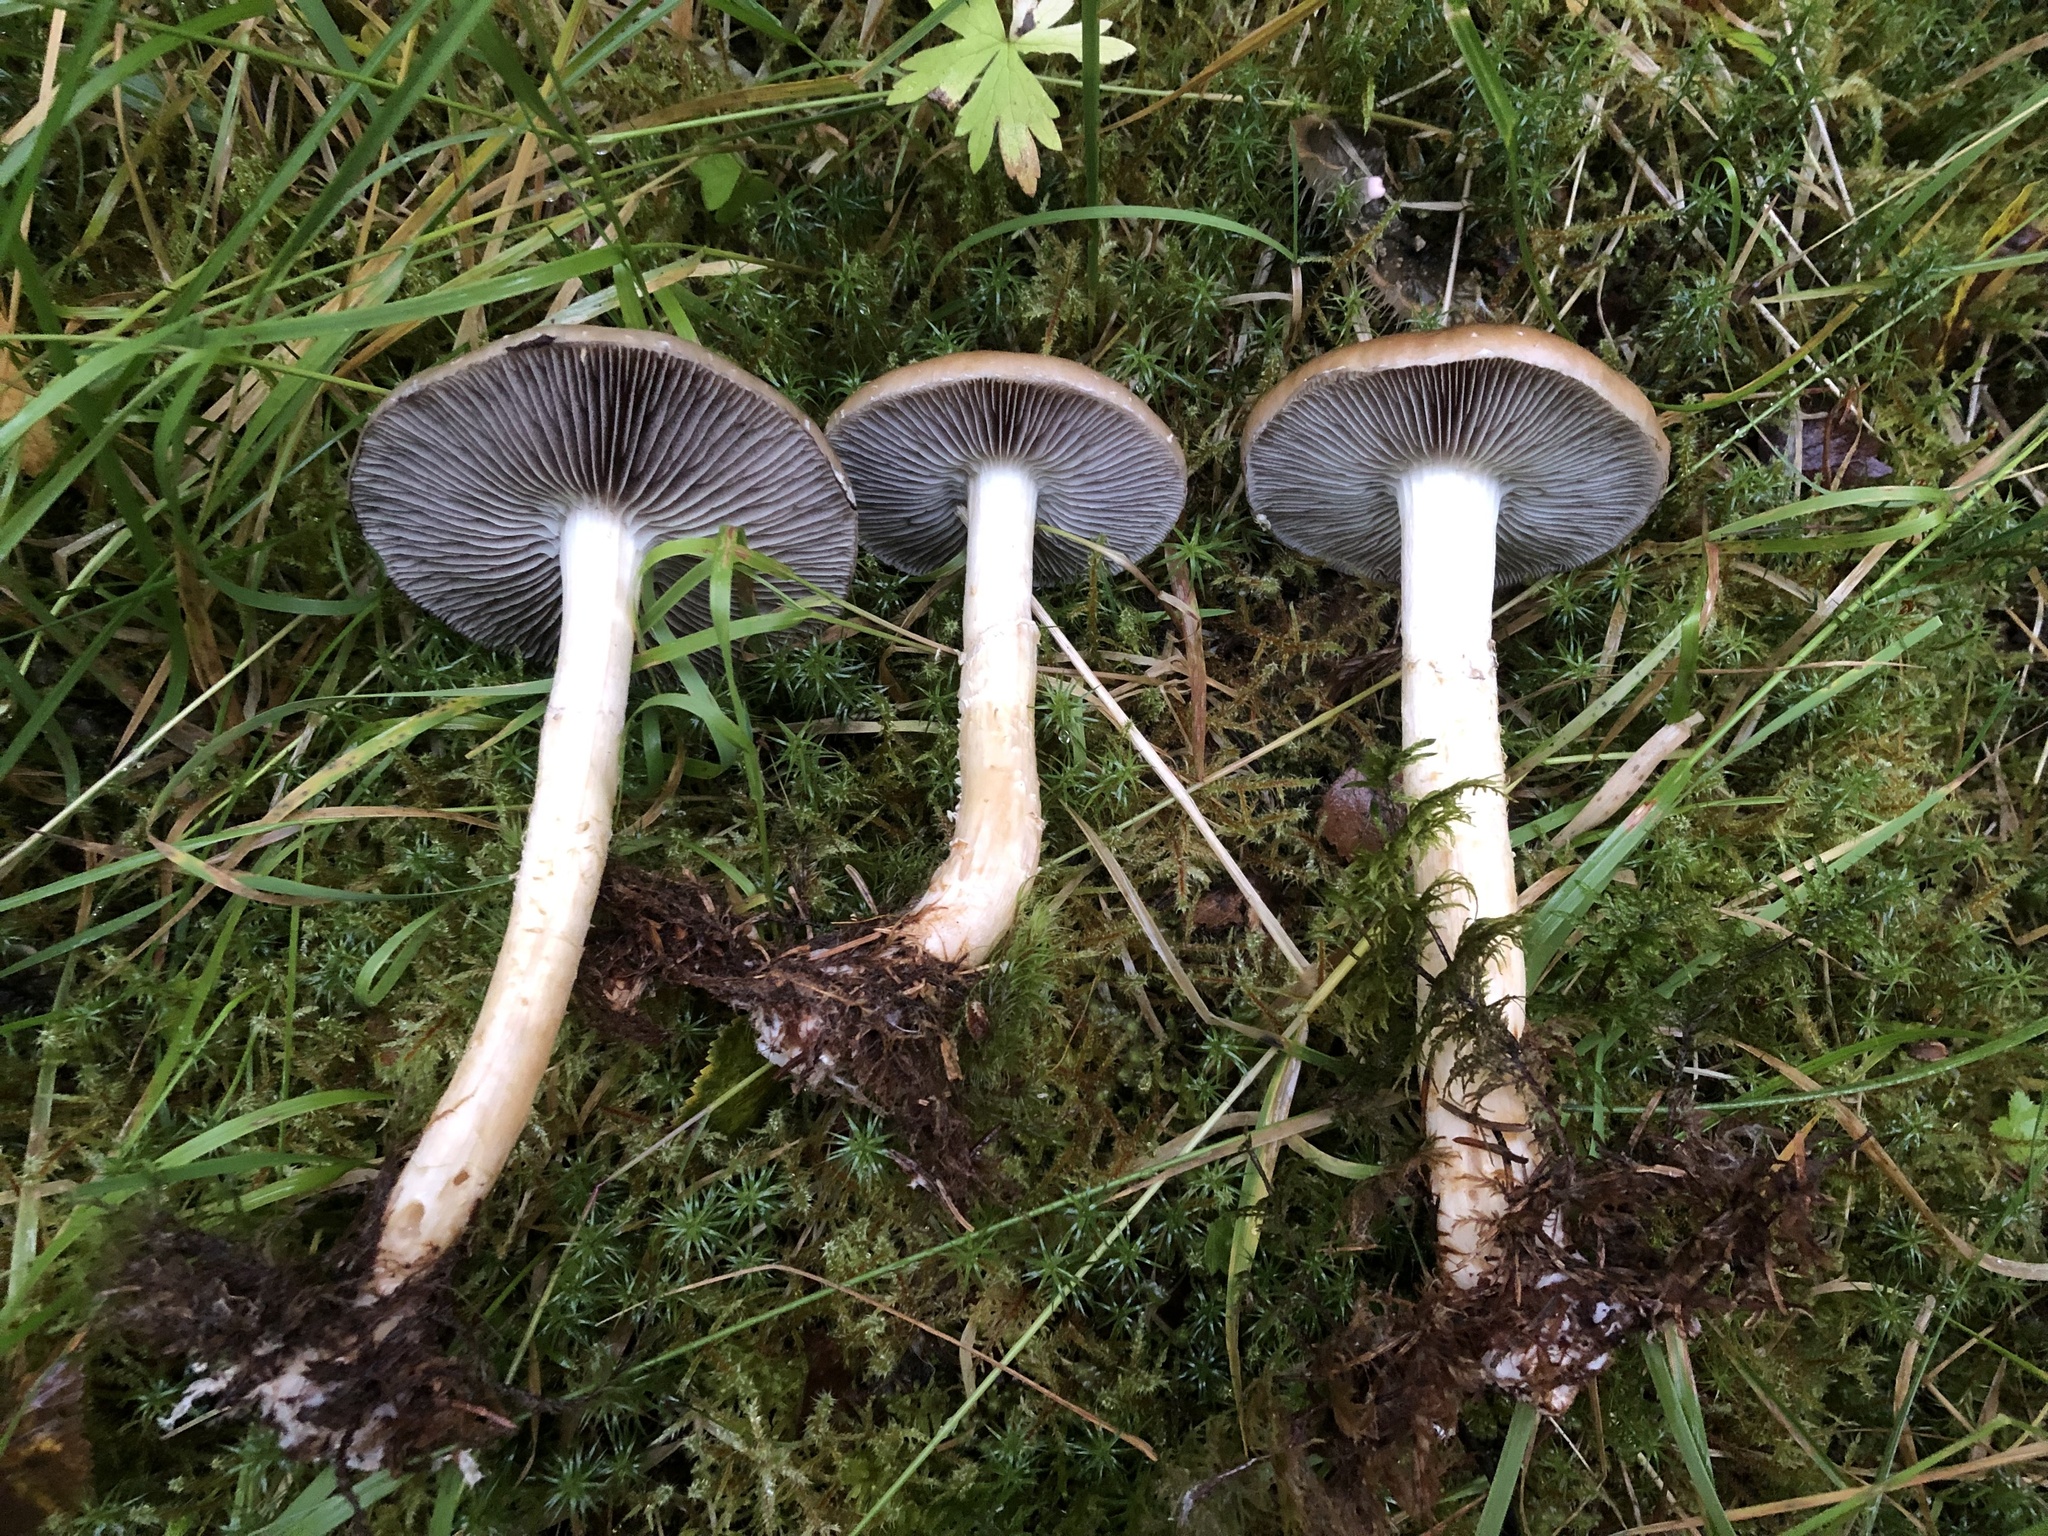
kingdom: Fungi
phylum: Basidiomycota
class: Agaricomycetes
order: Agaricales
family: Strophariaceae
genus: Stropharia
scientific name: Stropharia hornemannii
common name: Conifer roundhead
